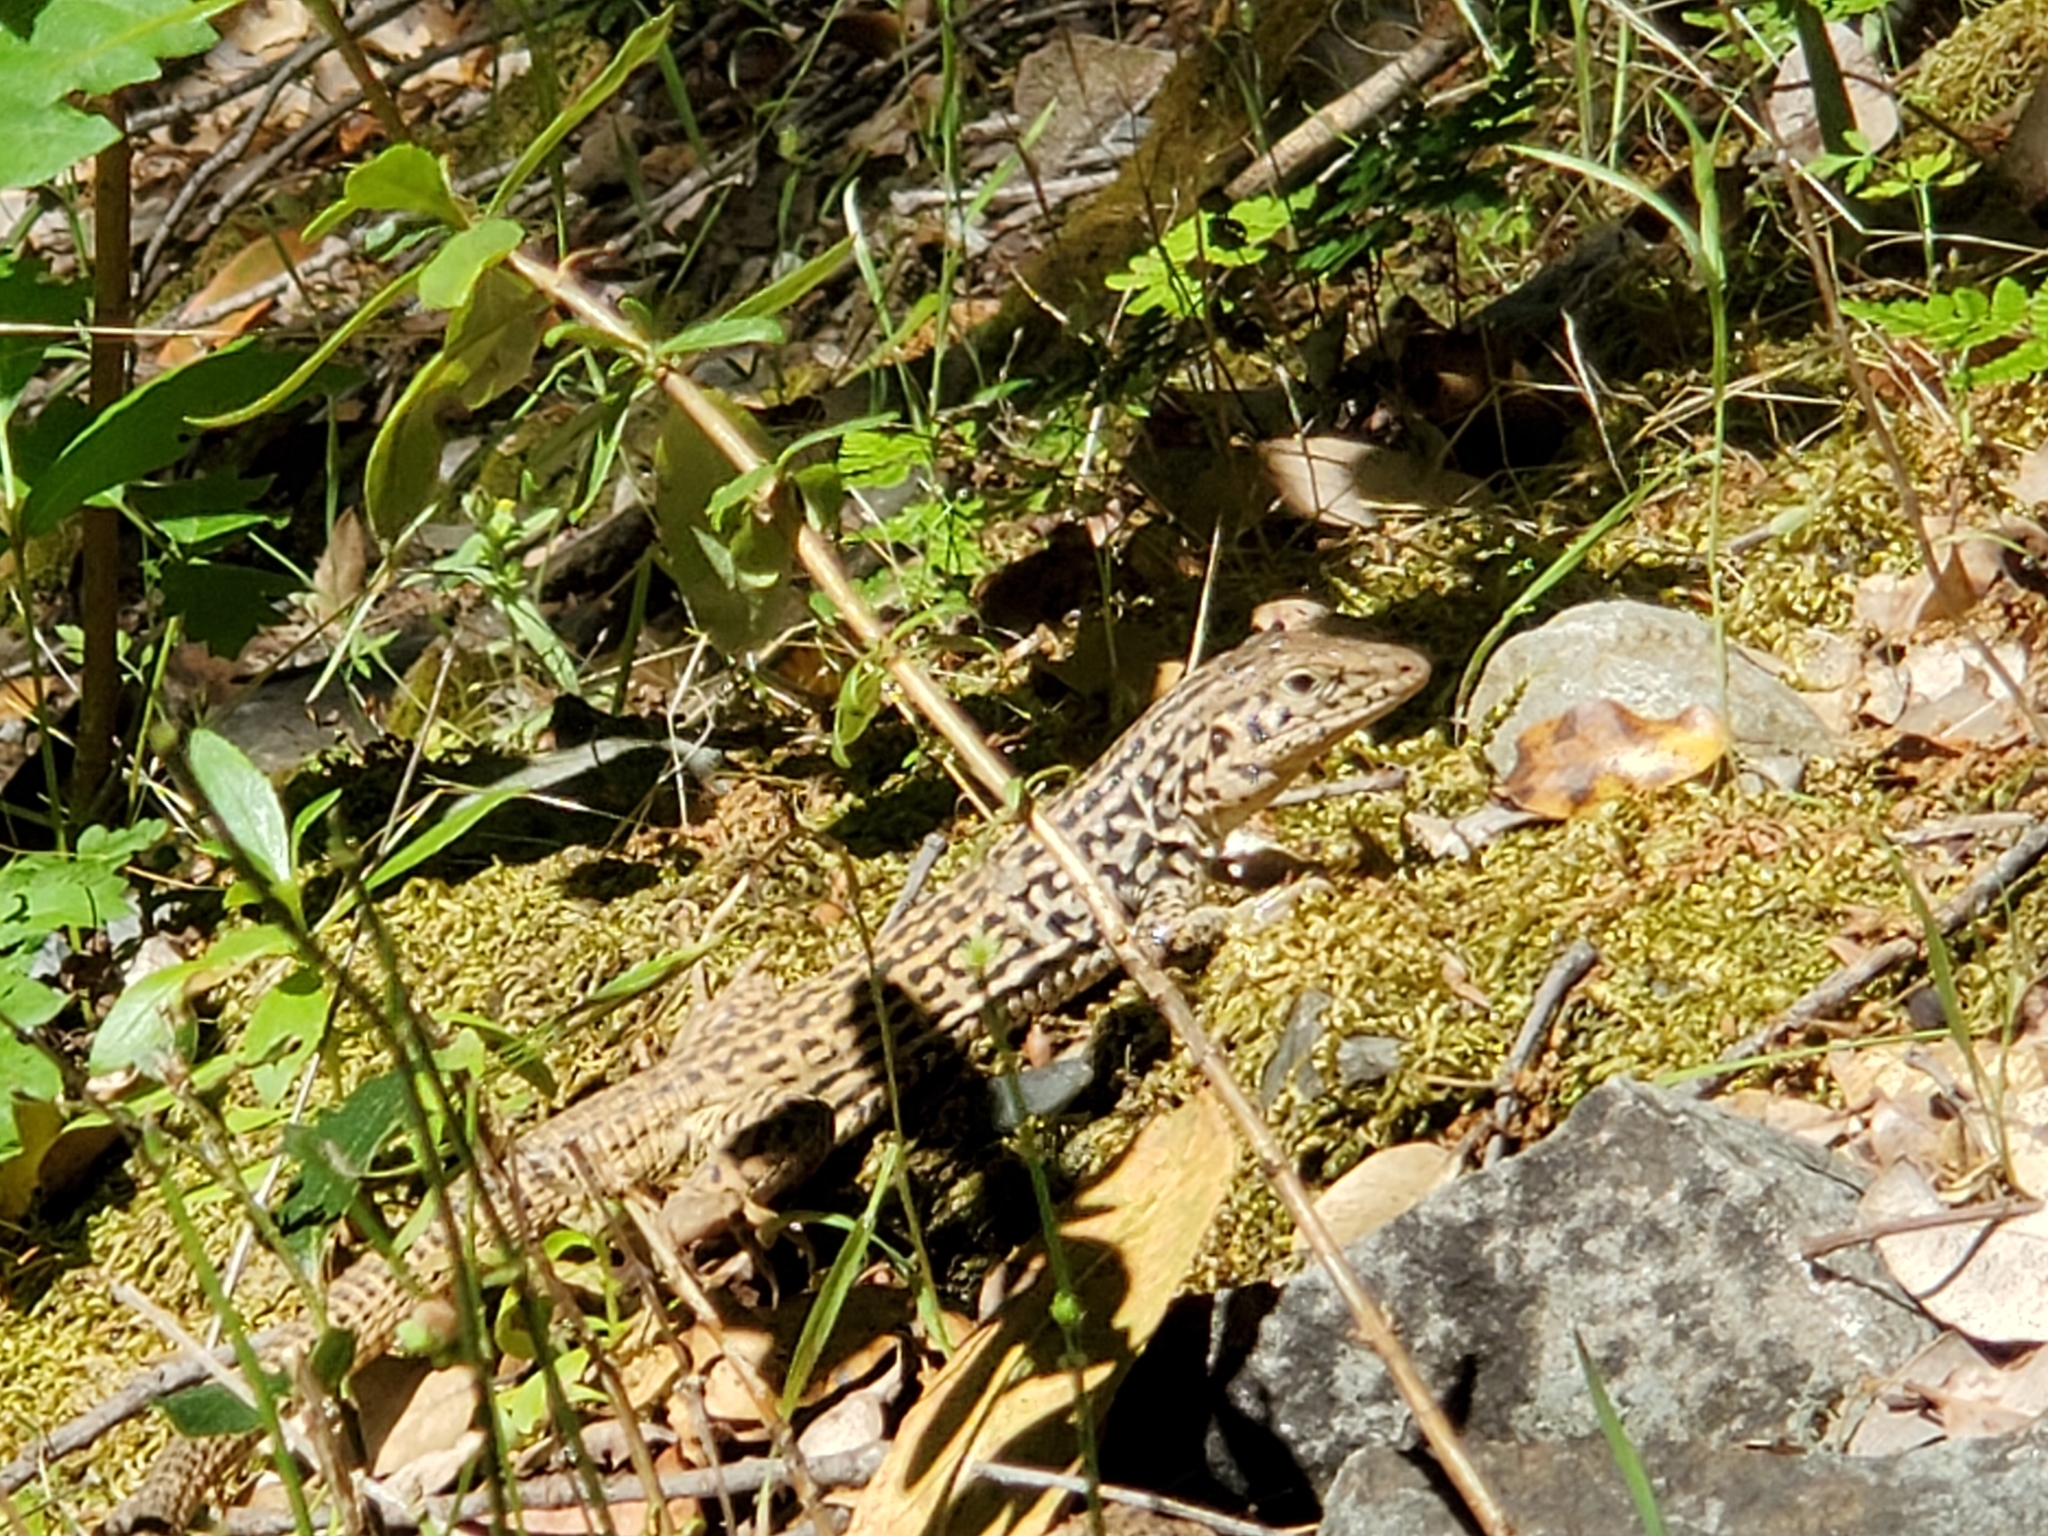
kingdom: Animalia
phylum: Chordata
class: Squamata
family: Teiidae
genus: Aspidoscelis
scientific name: Aspidoscelis tigris
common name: Tiger whiptail
